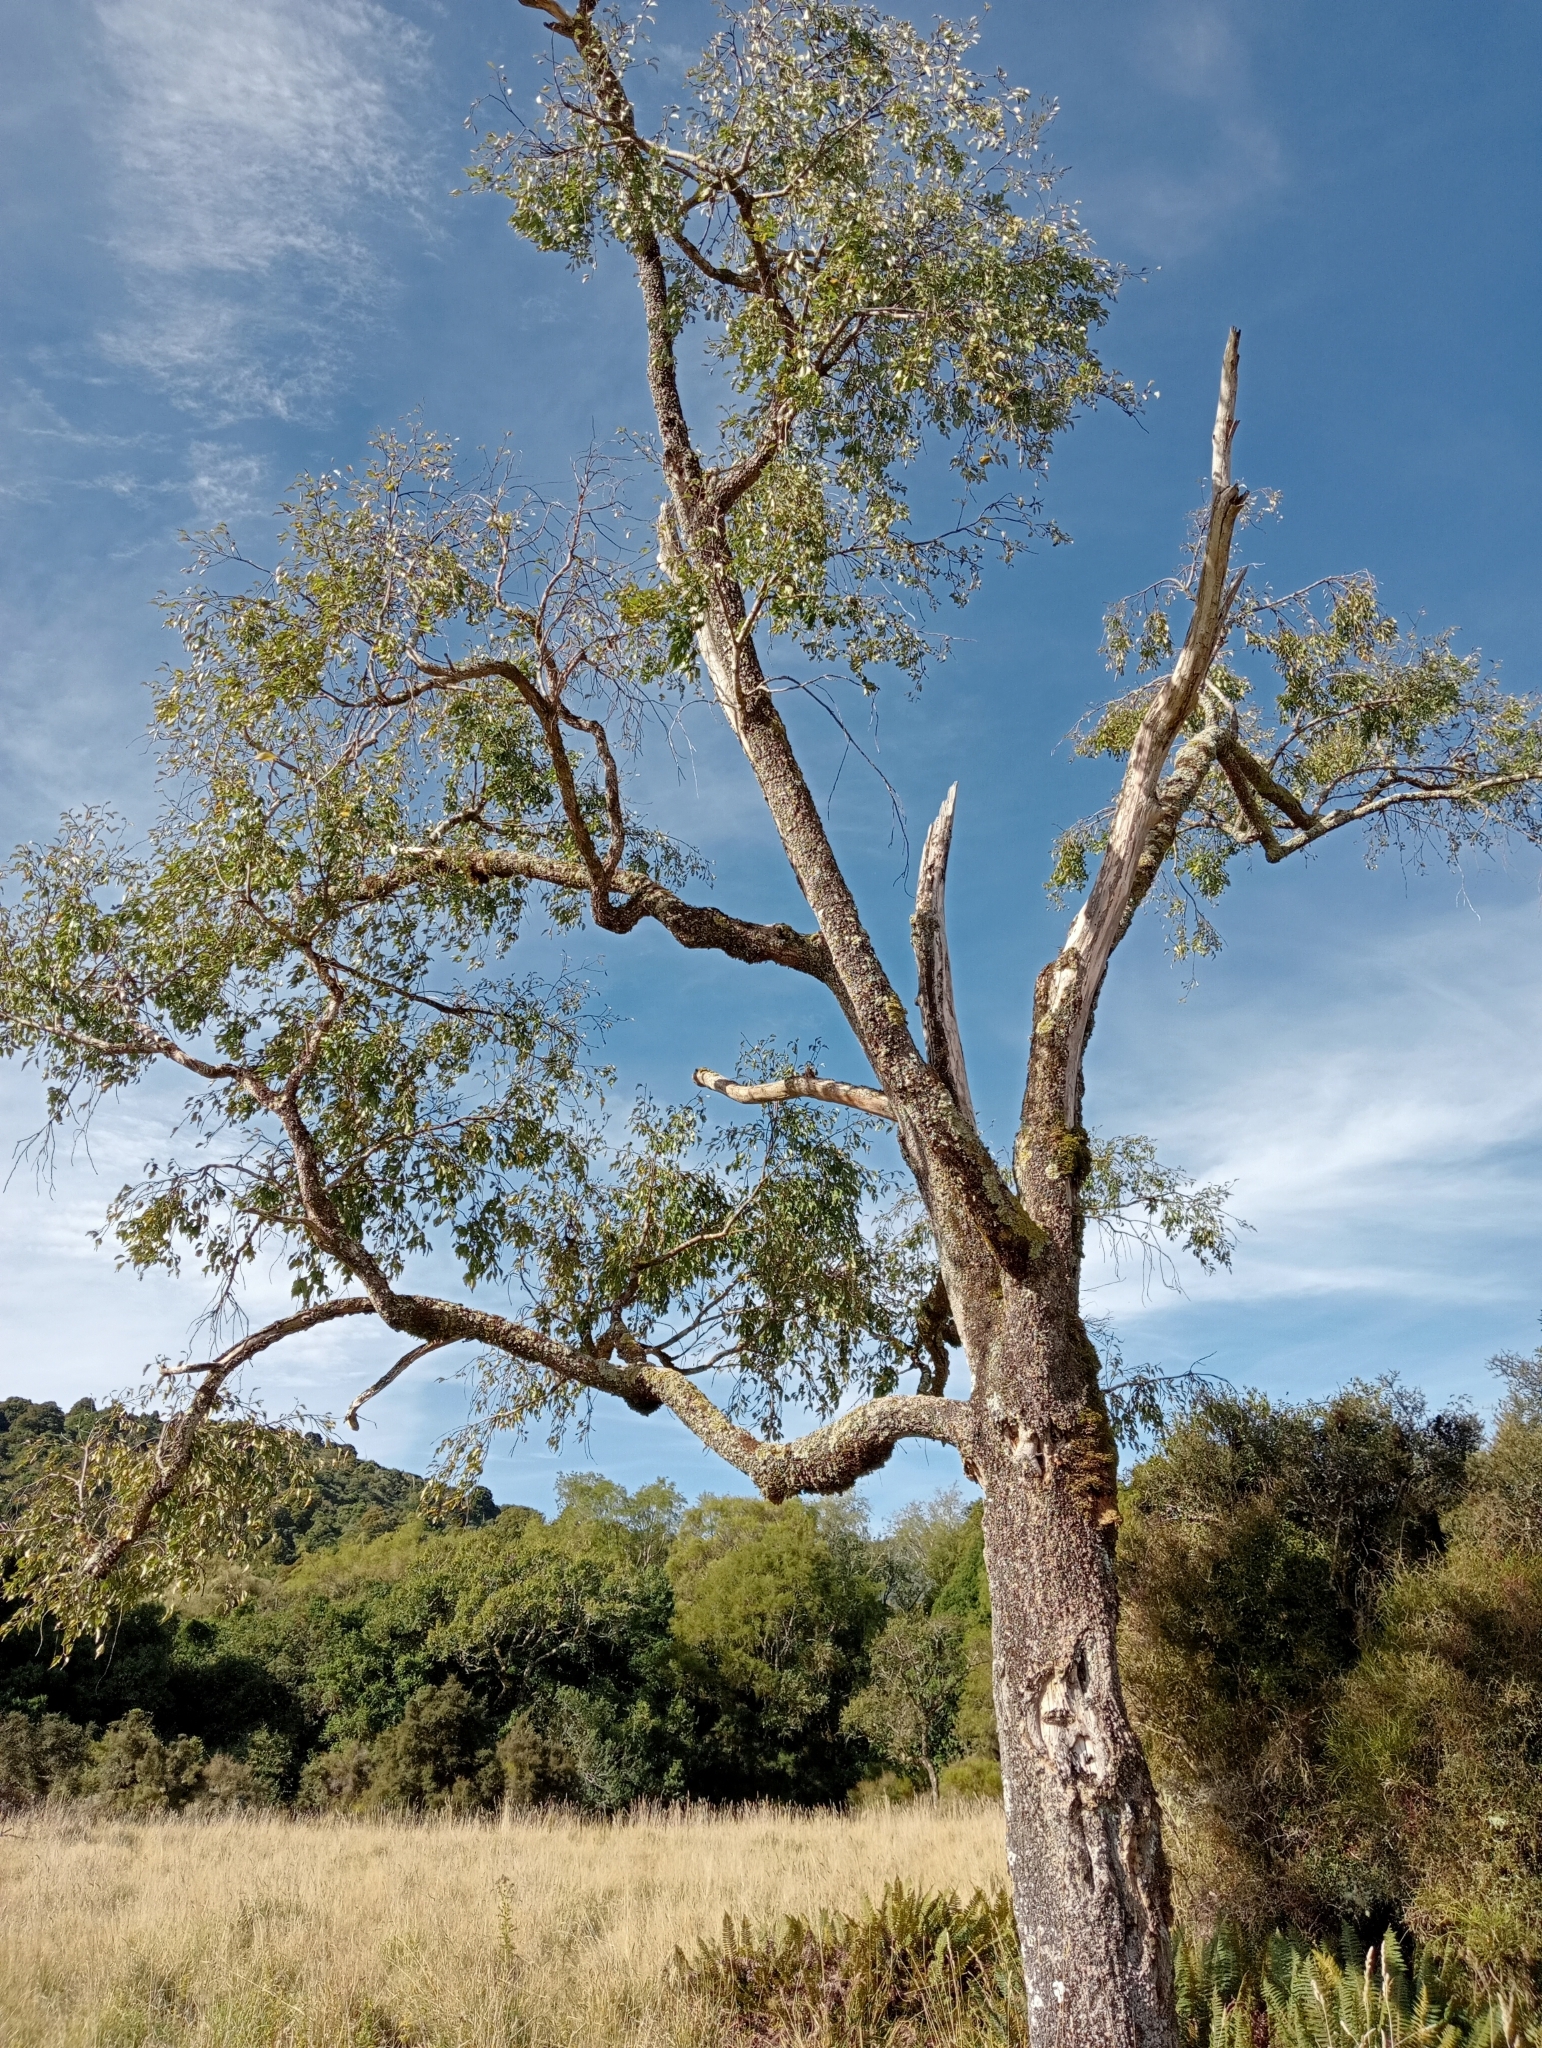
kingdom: Plantae
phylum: Tracheophyta
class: Magnoliopsida
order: Malvales
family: Malvaceae
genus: Plagianthus
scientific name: Plagianthus regius
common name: Manatu
